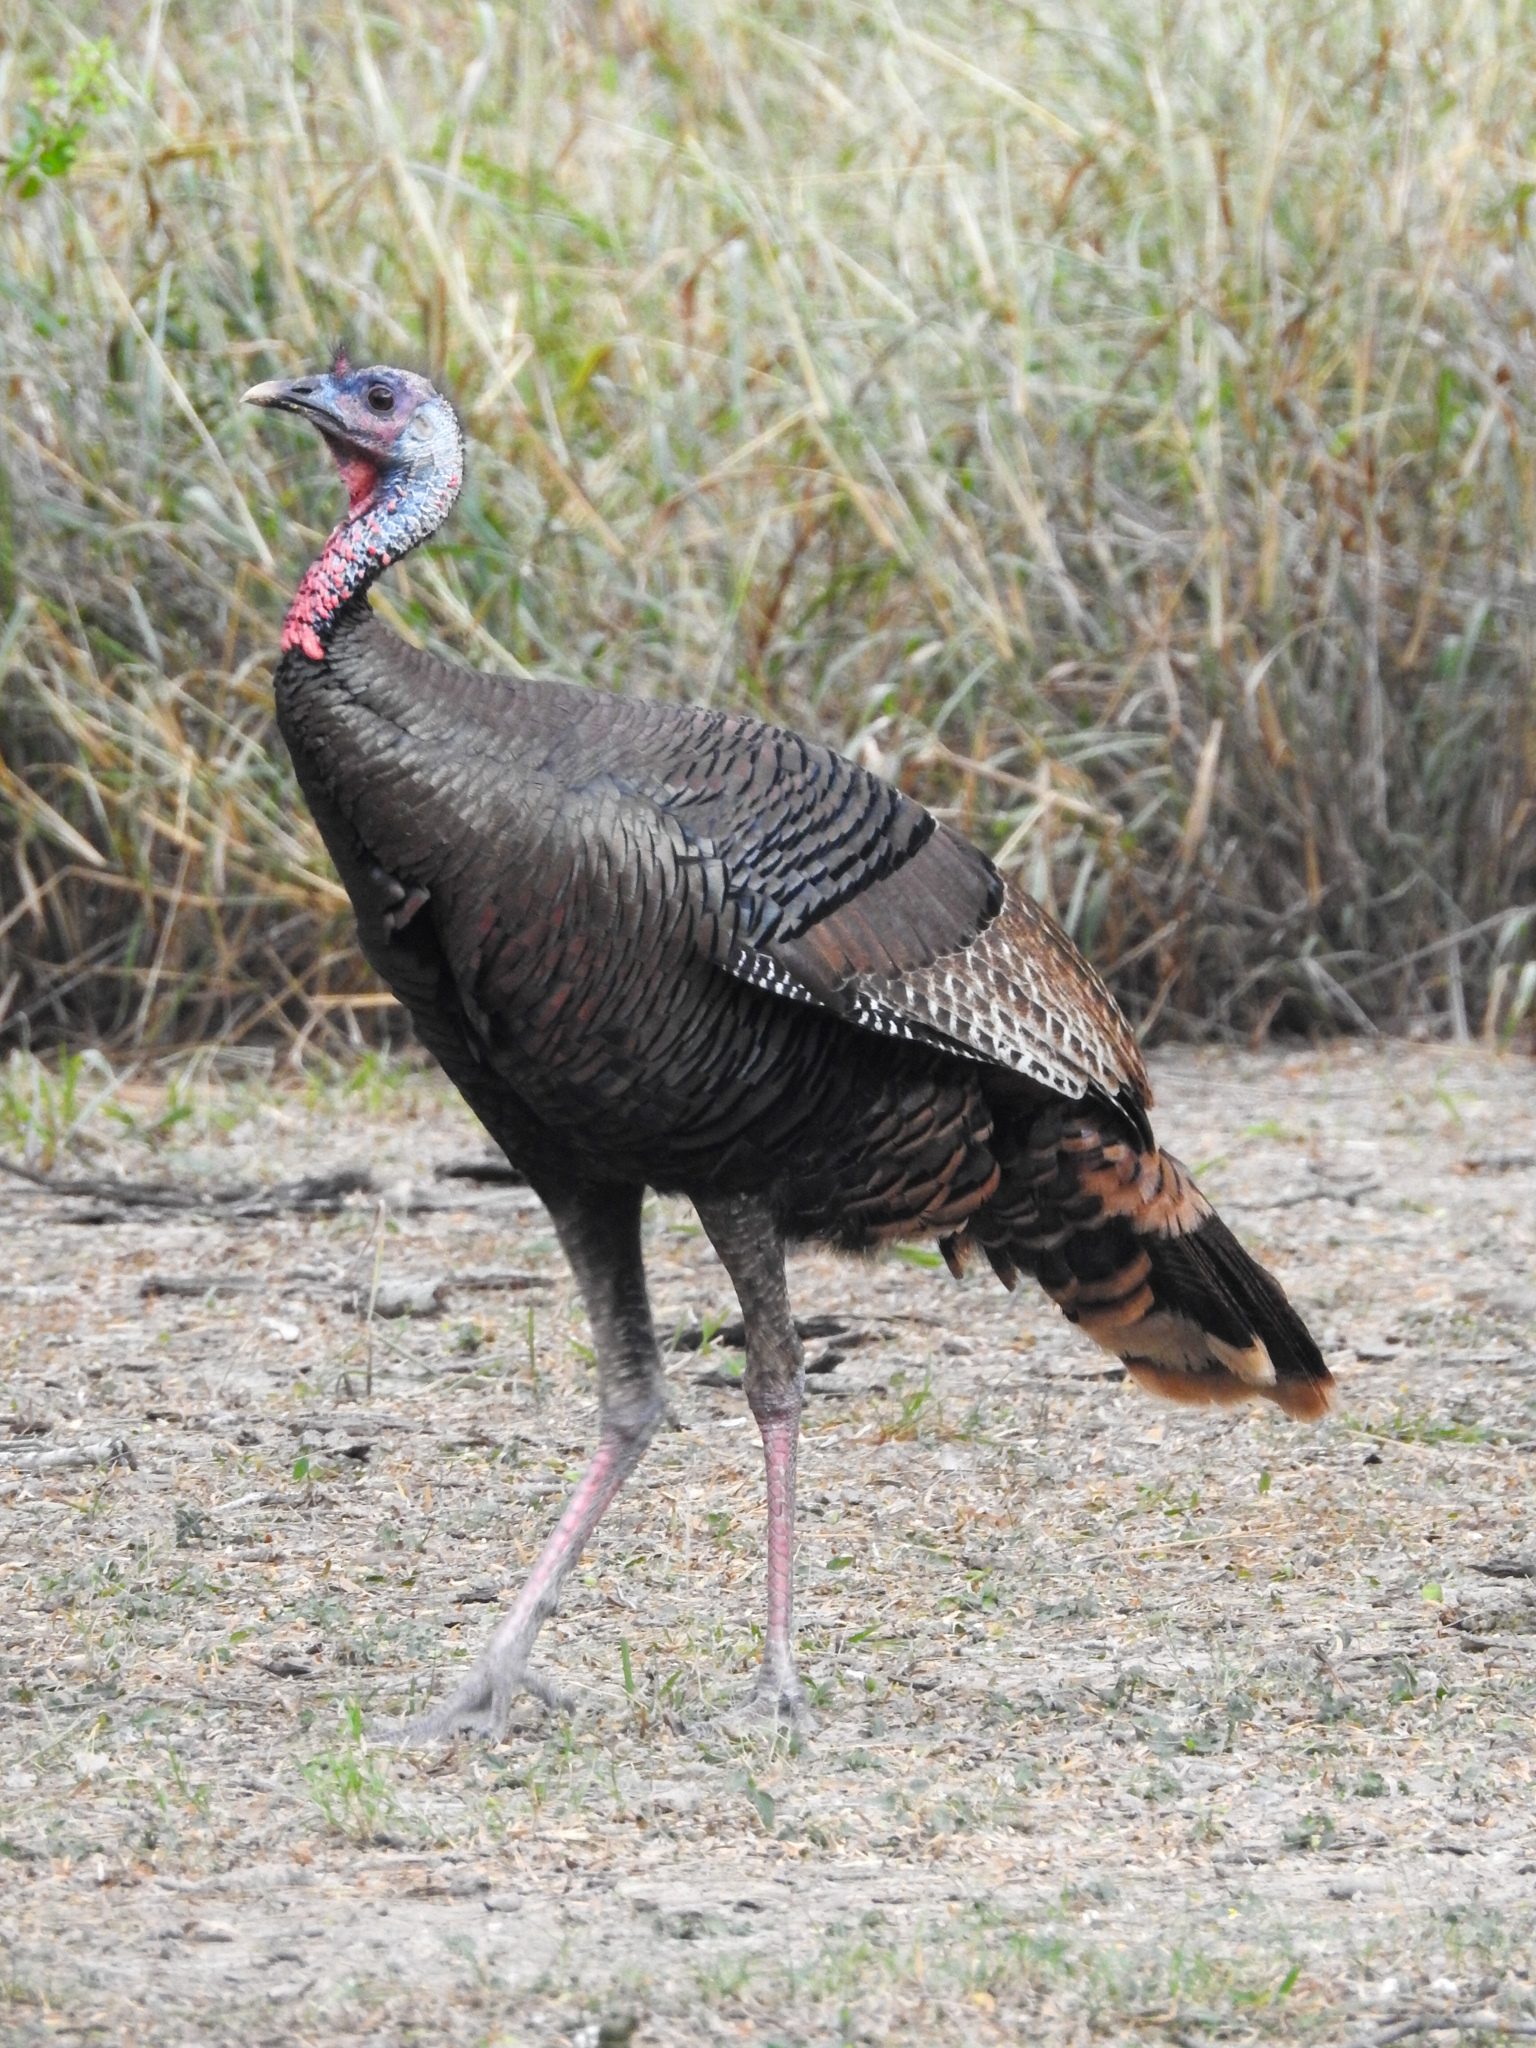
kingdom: Animalia
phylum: Chordata
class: Aves
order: Galliformes
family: Phasianidae
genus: Meleagris
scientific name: Meleagris gallopavo
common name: Wild turkey
